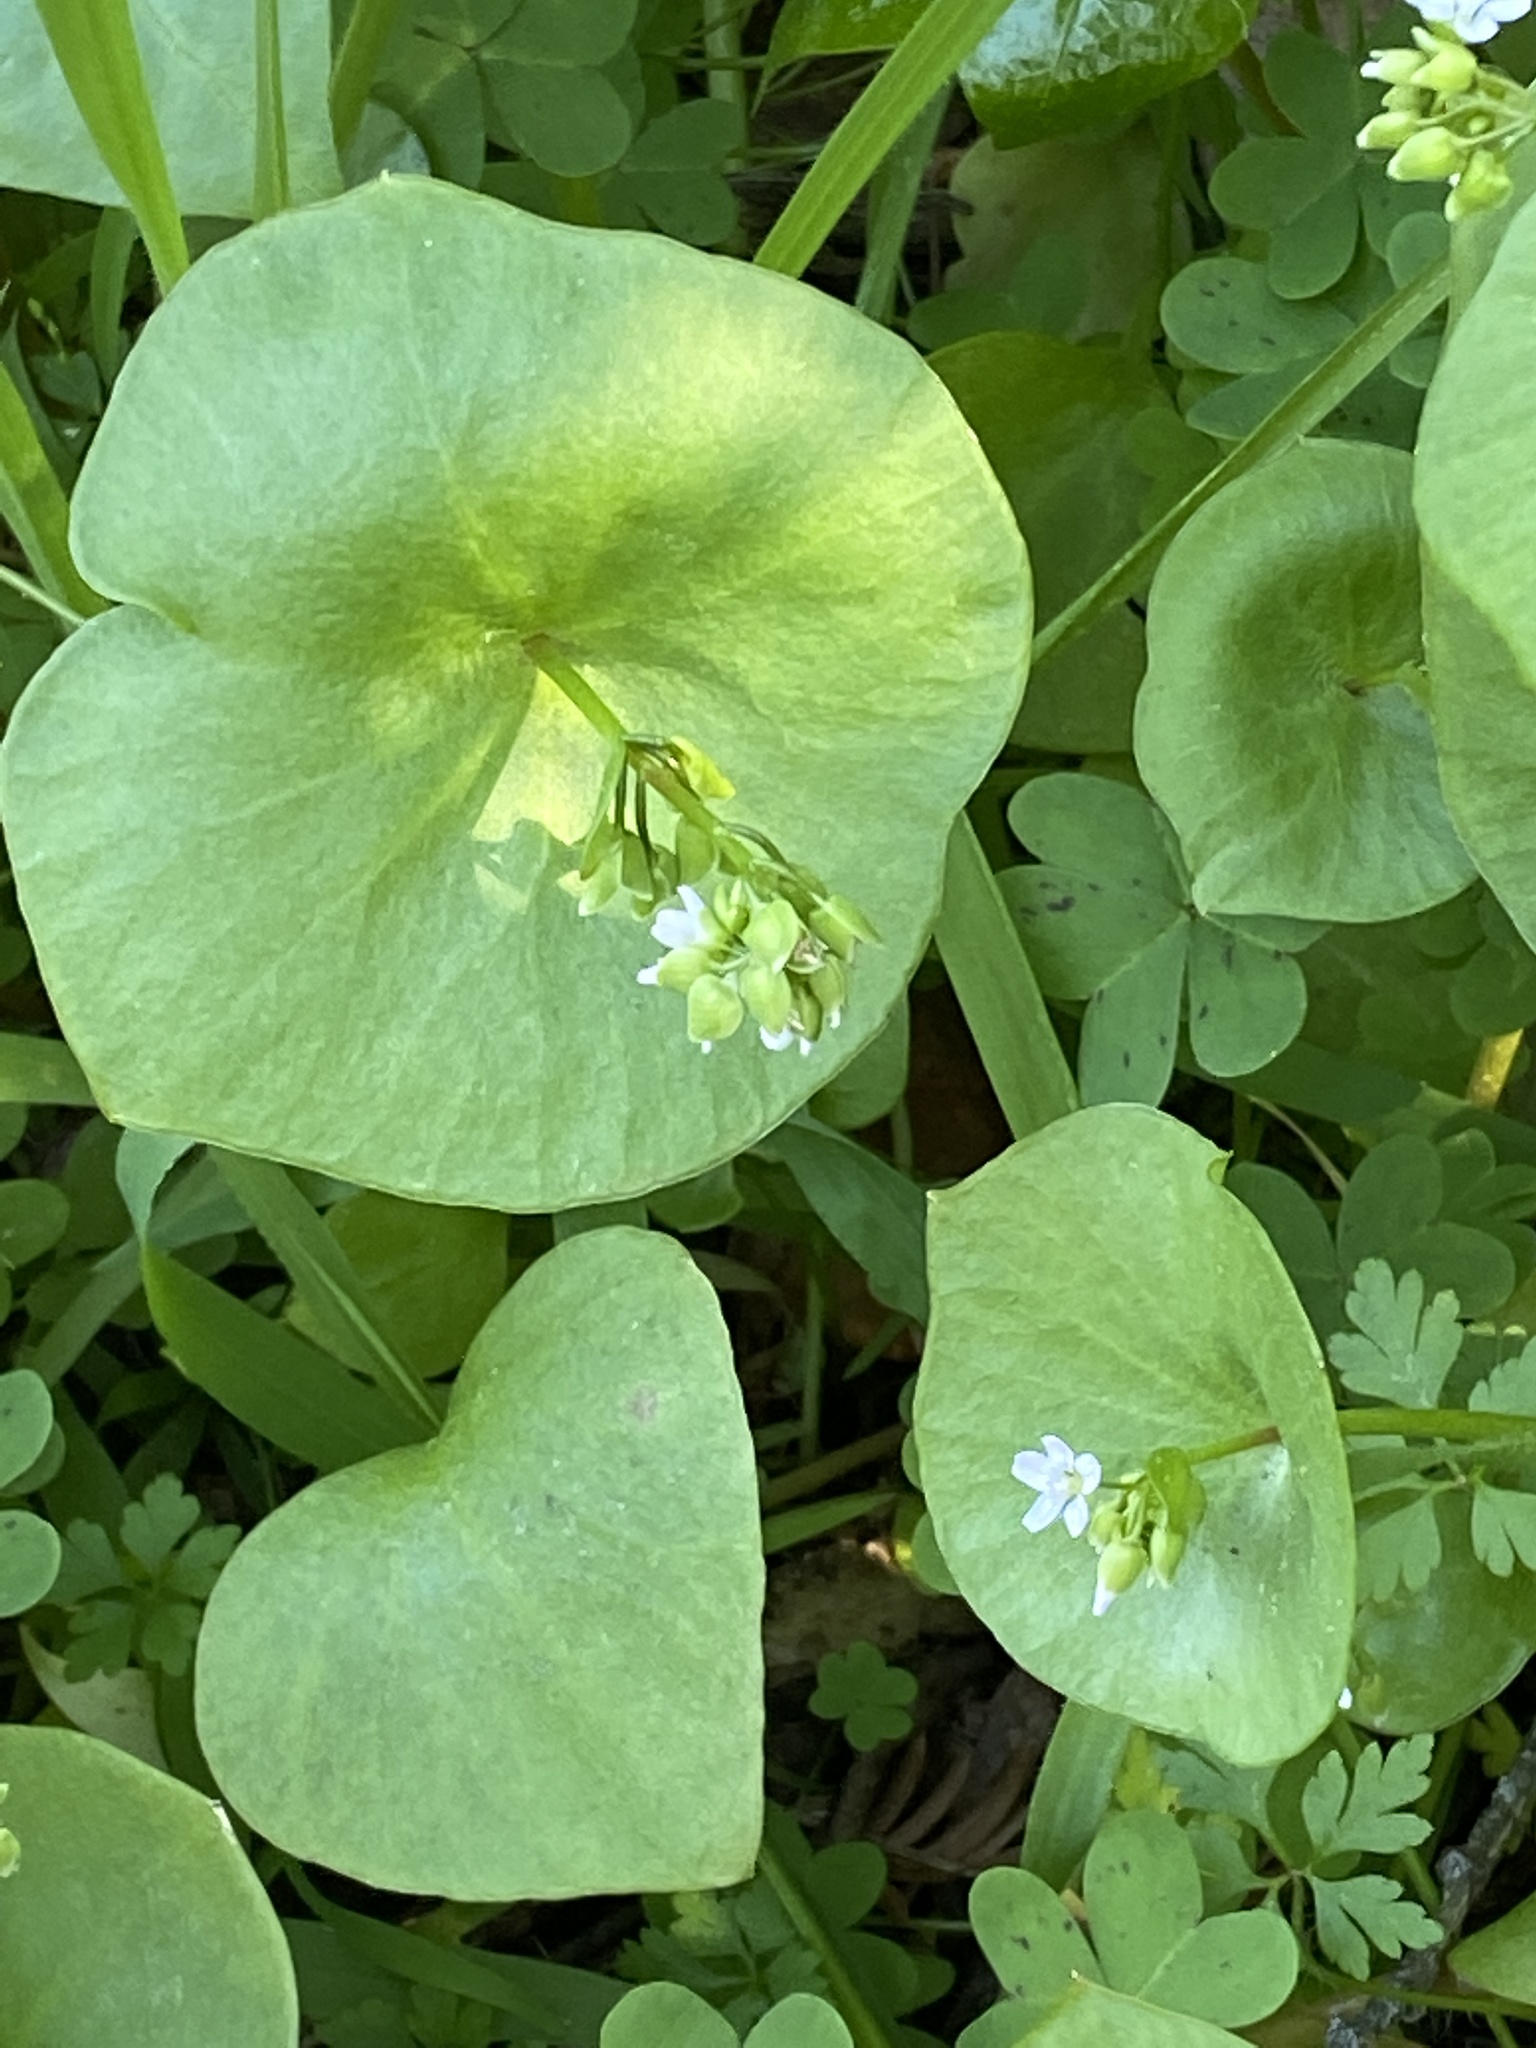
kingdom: Plantae
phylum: Tracheophyta
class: Magnoliopsida
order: Caryophyllales
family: Montiaceae
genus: Claytonia
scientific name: Claytonia perfoliata
